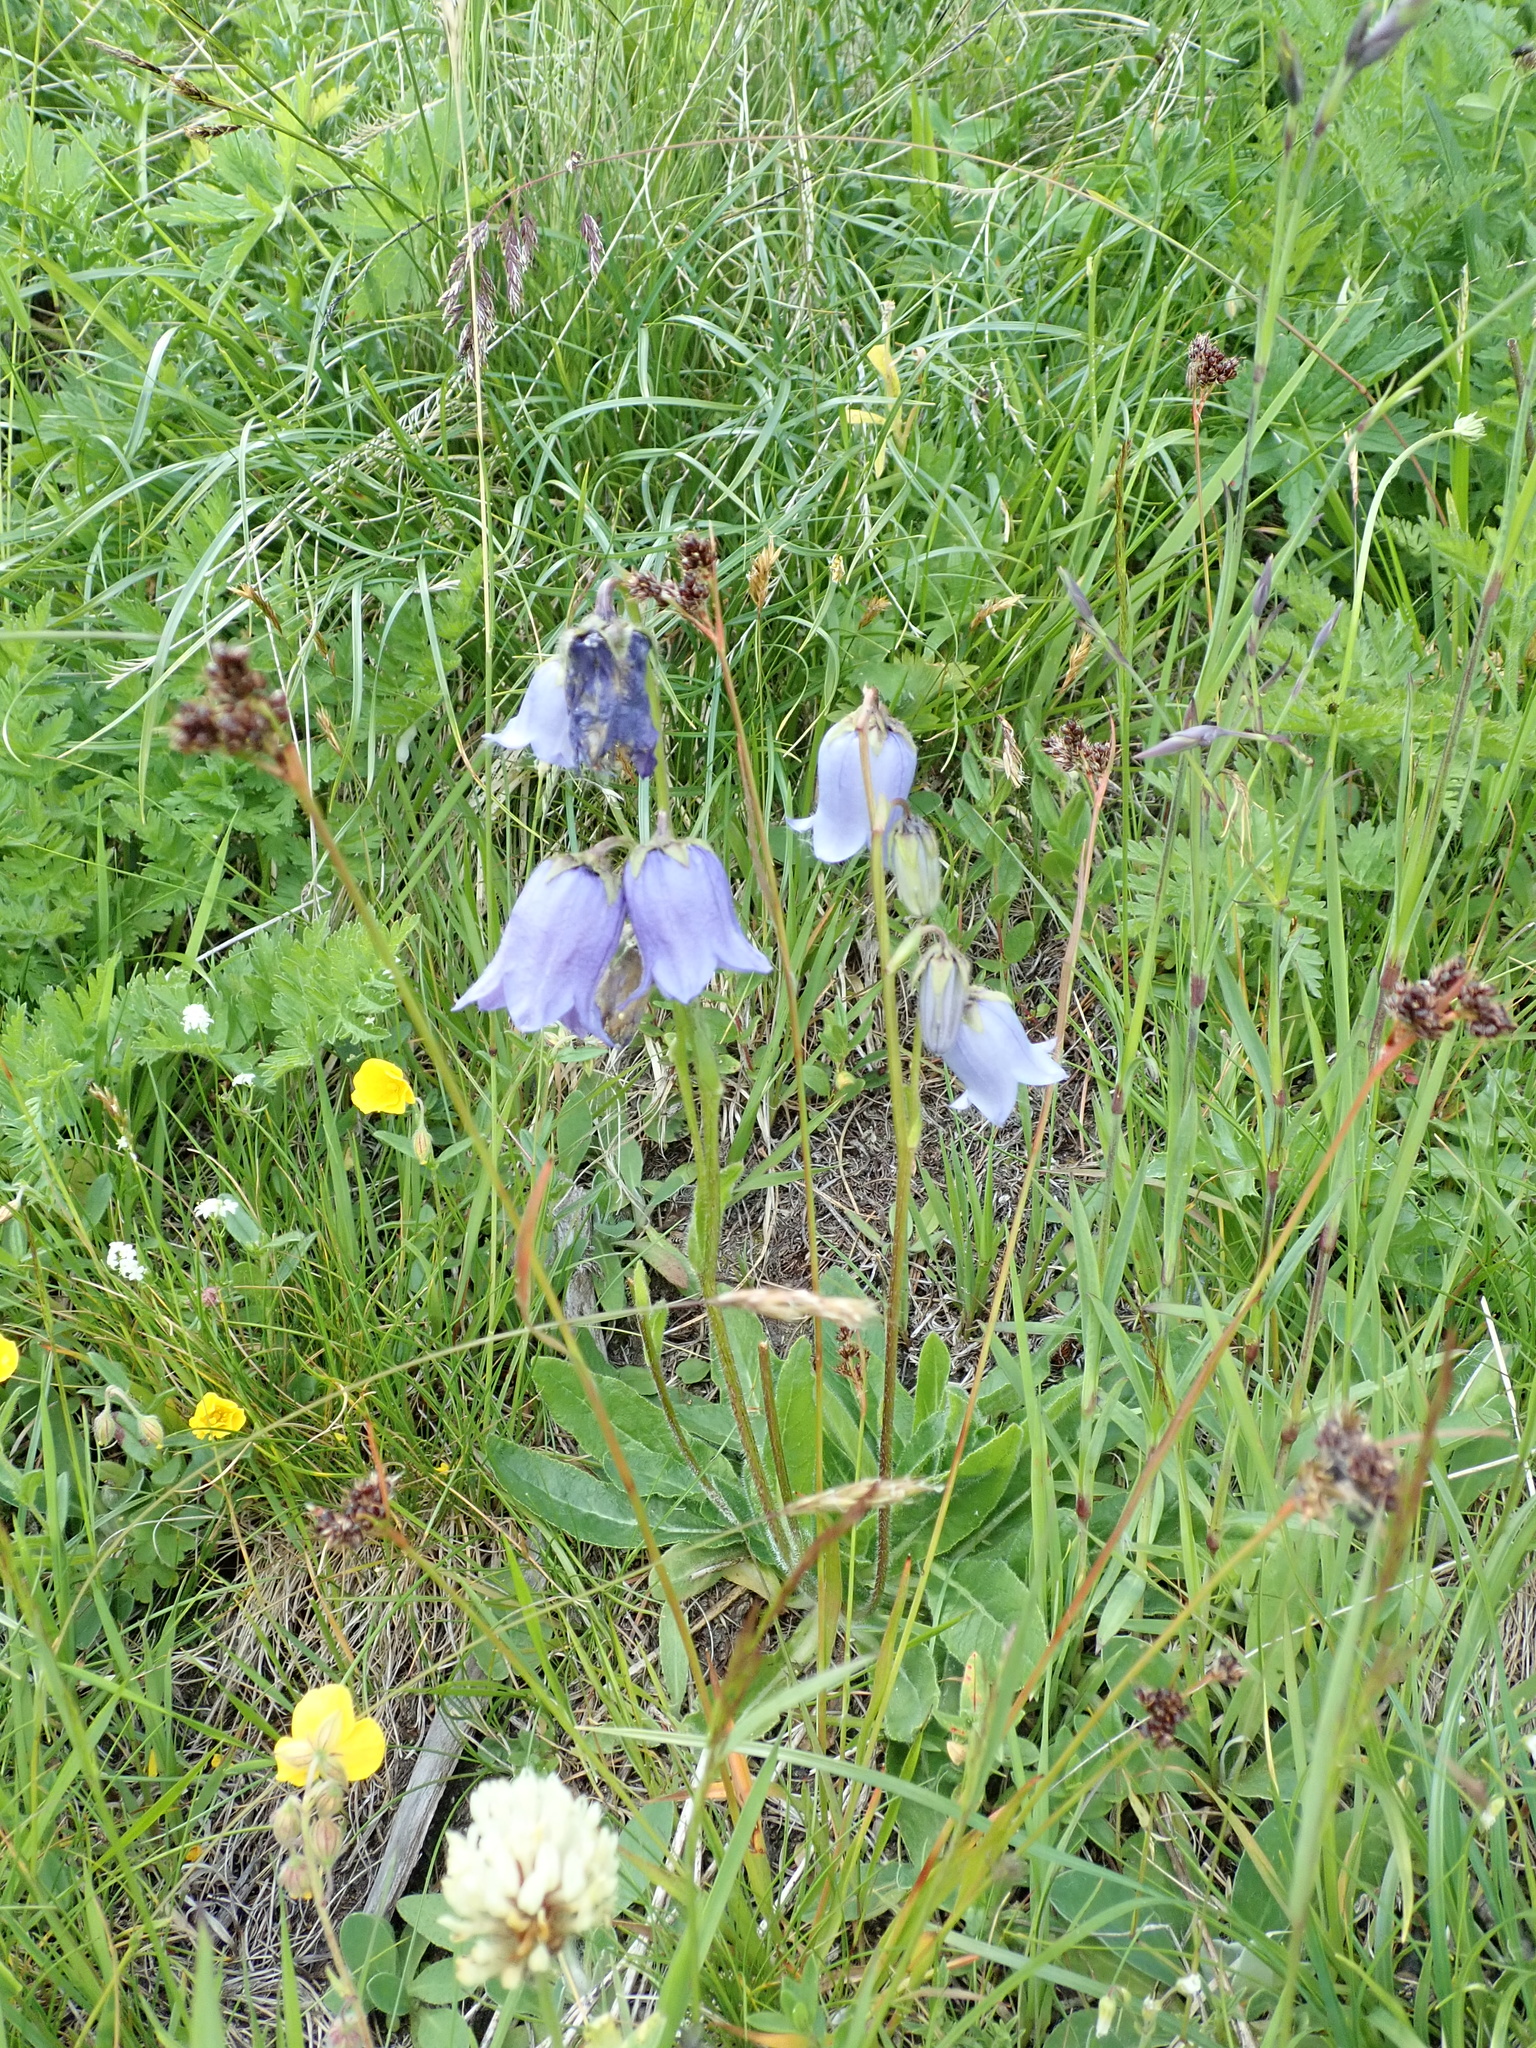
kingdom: Plantae
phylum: Tracheophyta
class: Magnoliopsida
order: Asterales
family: Campanulaceae
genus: Campanula
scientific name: Campanula barbata
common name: Bearded bellflower
